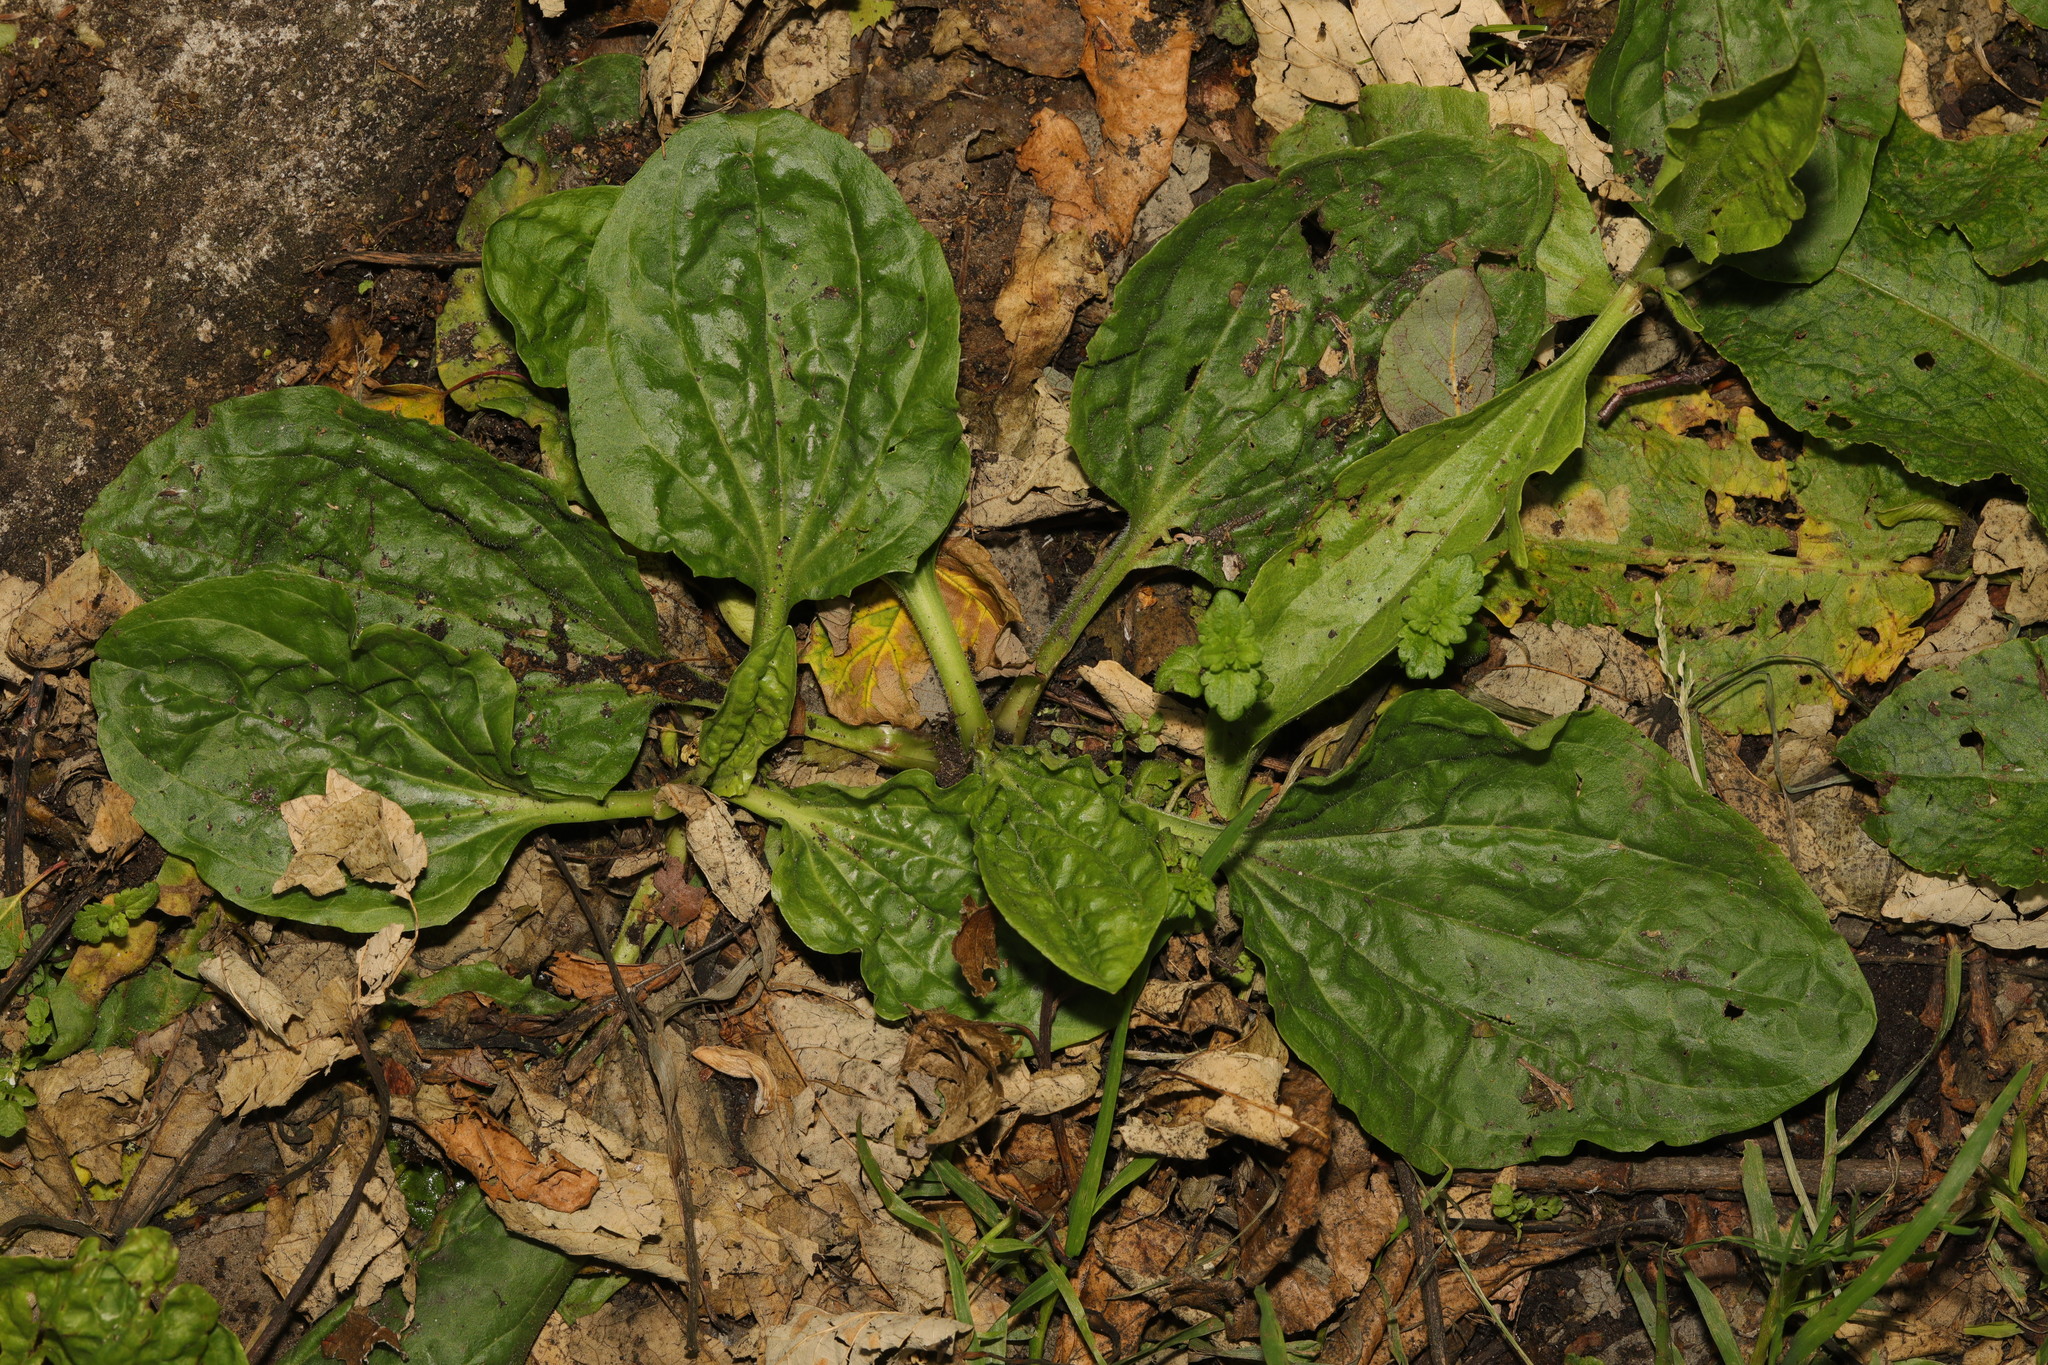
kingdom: Plantae
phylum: Tracheophyta
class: Magnoliopsida
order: Lamiales
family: Plantaginaceae
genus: Plantago
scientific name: Plantago major
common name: Common plantain
